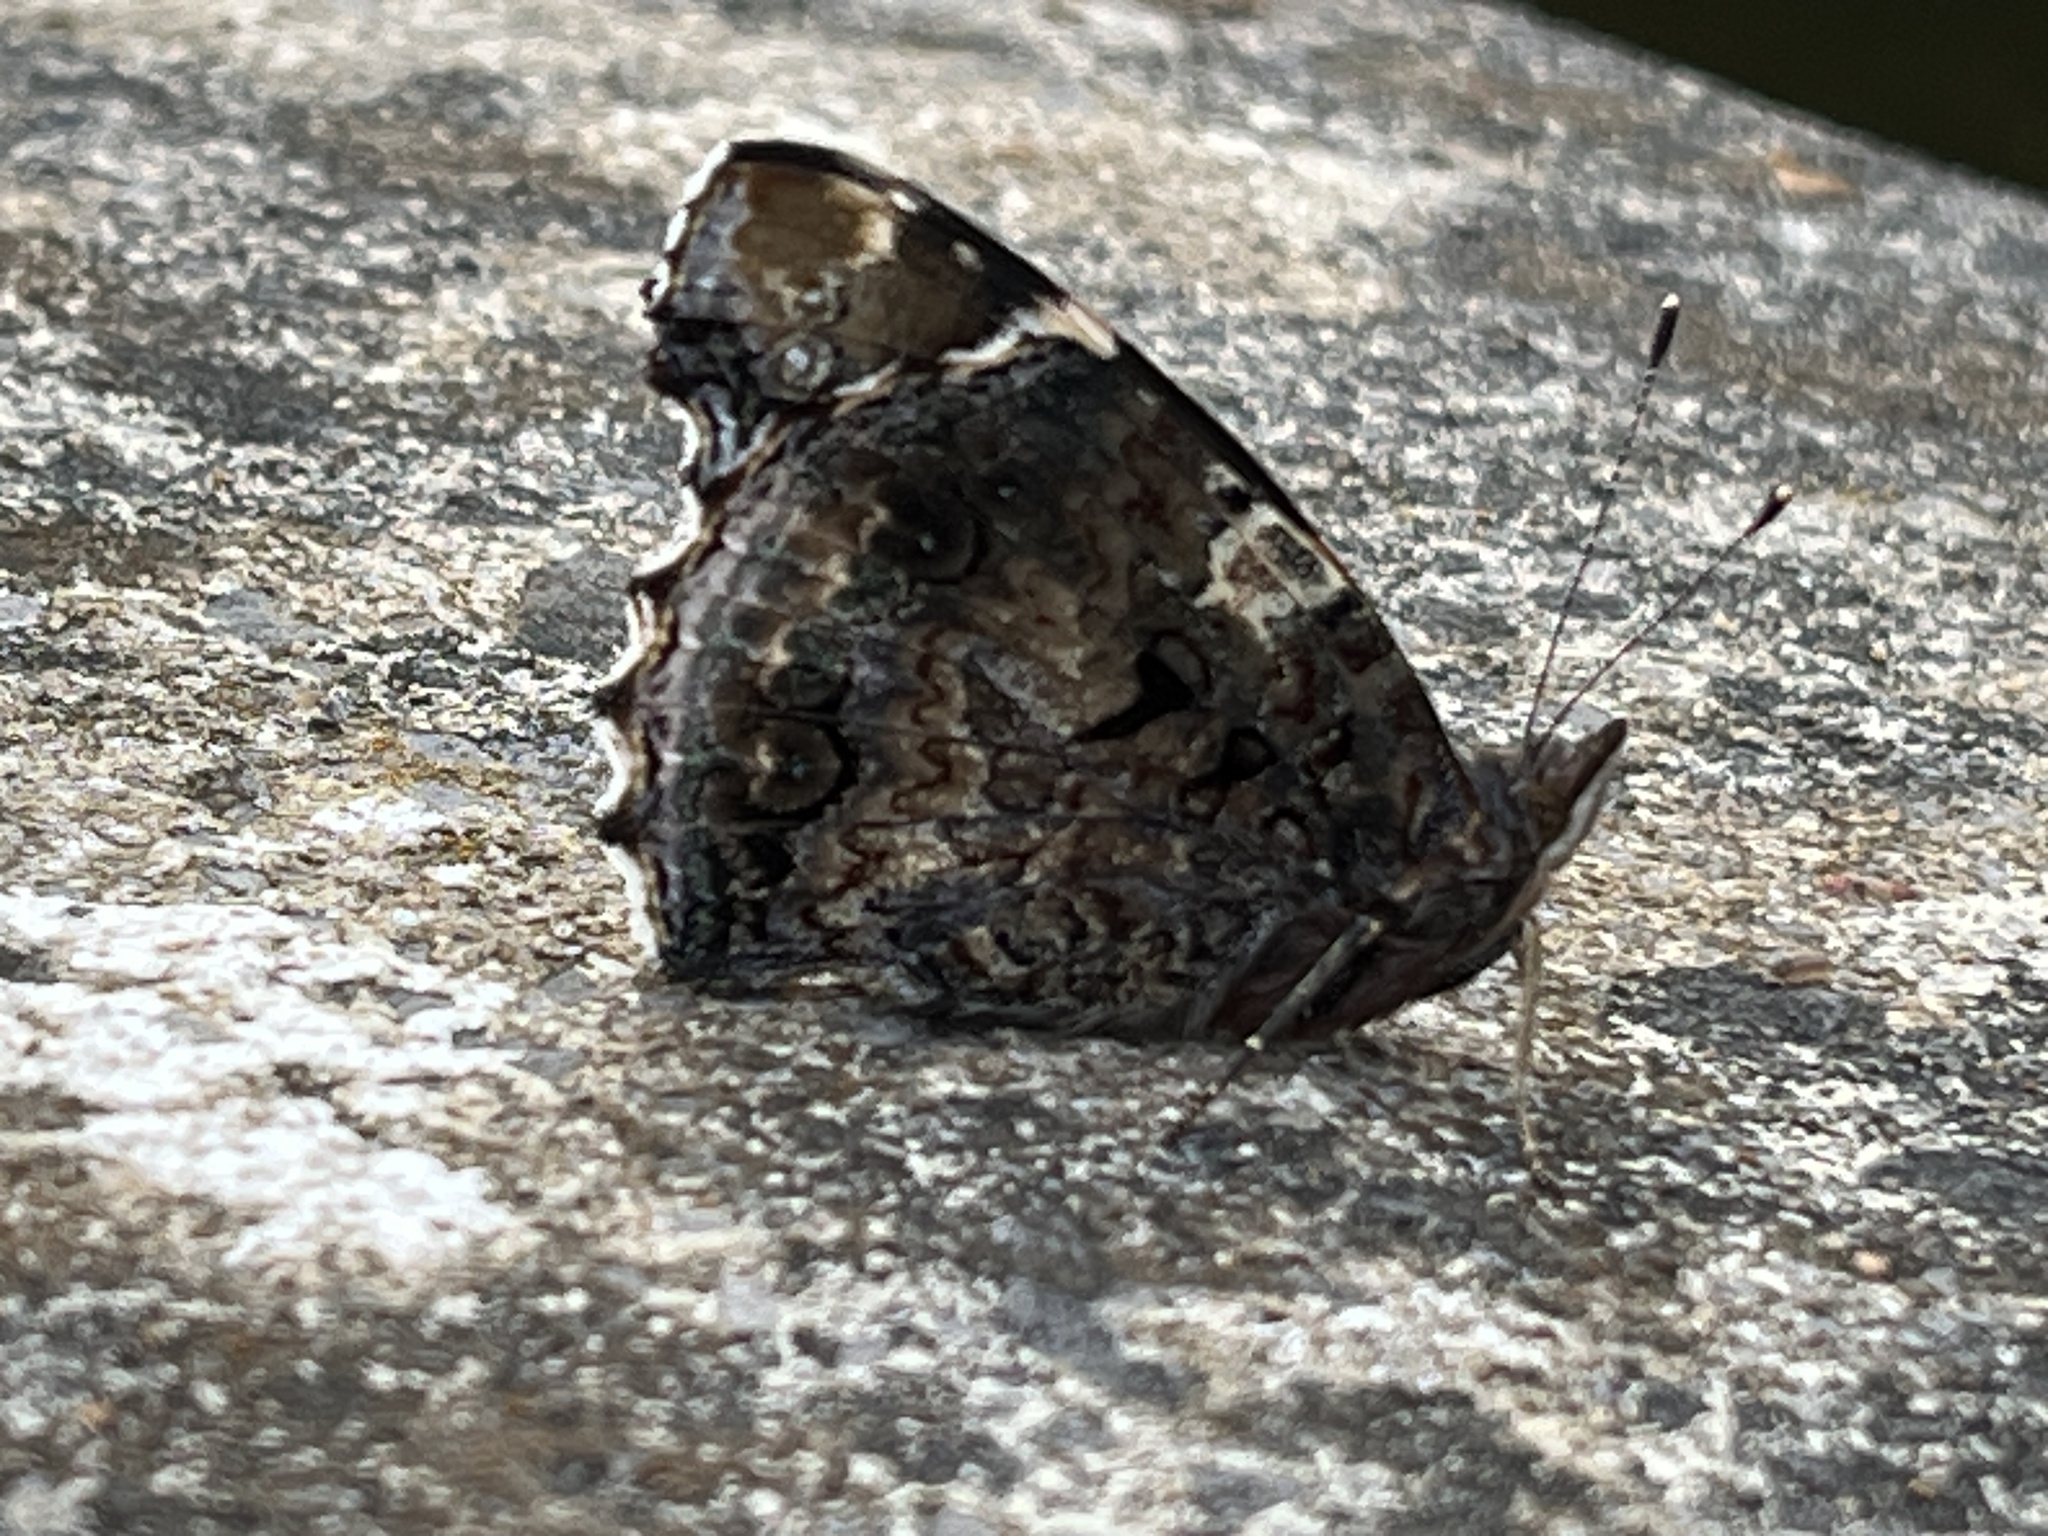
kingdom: Animalia
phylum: Arthropoda
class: Insecta
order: Lepidoptera
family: Nymphalidae
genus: Vanessa
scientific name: Vanessa atalanta
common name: Red admiral
